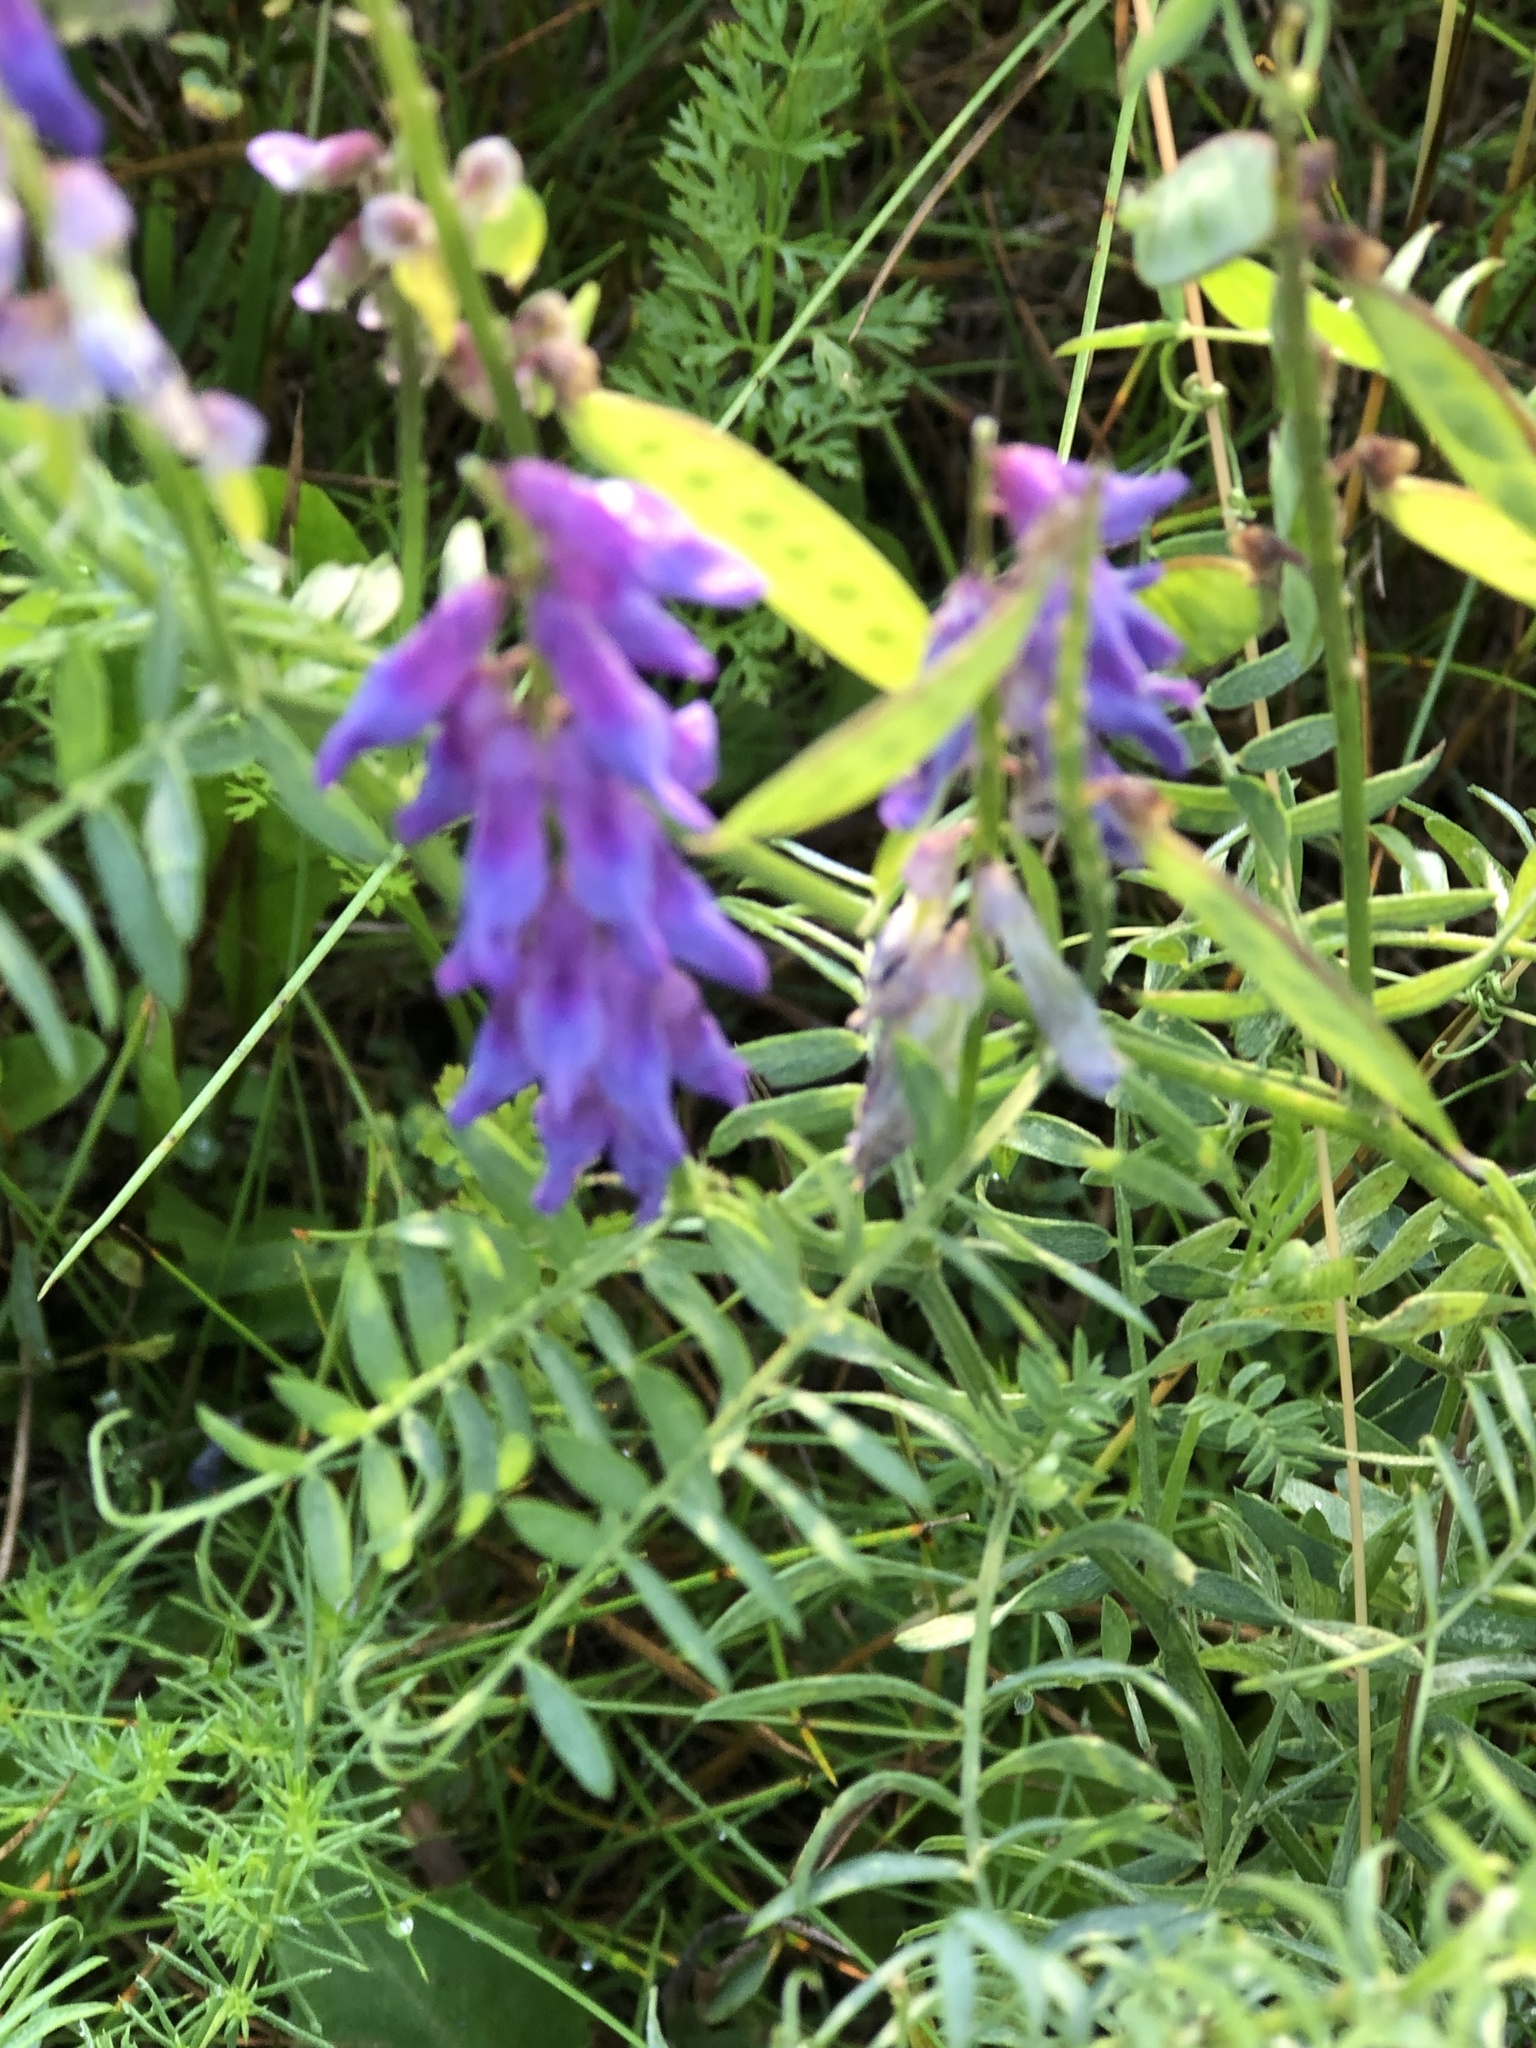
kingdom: Plantae
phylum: Tracheophyta
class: Magnoliopsida
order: Fabales
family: Fabaceae
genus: Vicia
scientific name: Vicia cracca
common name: Bird vetch
